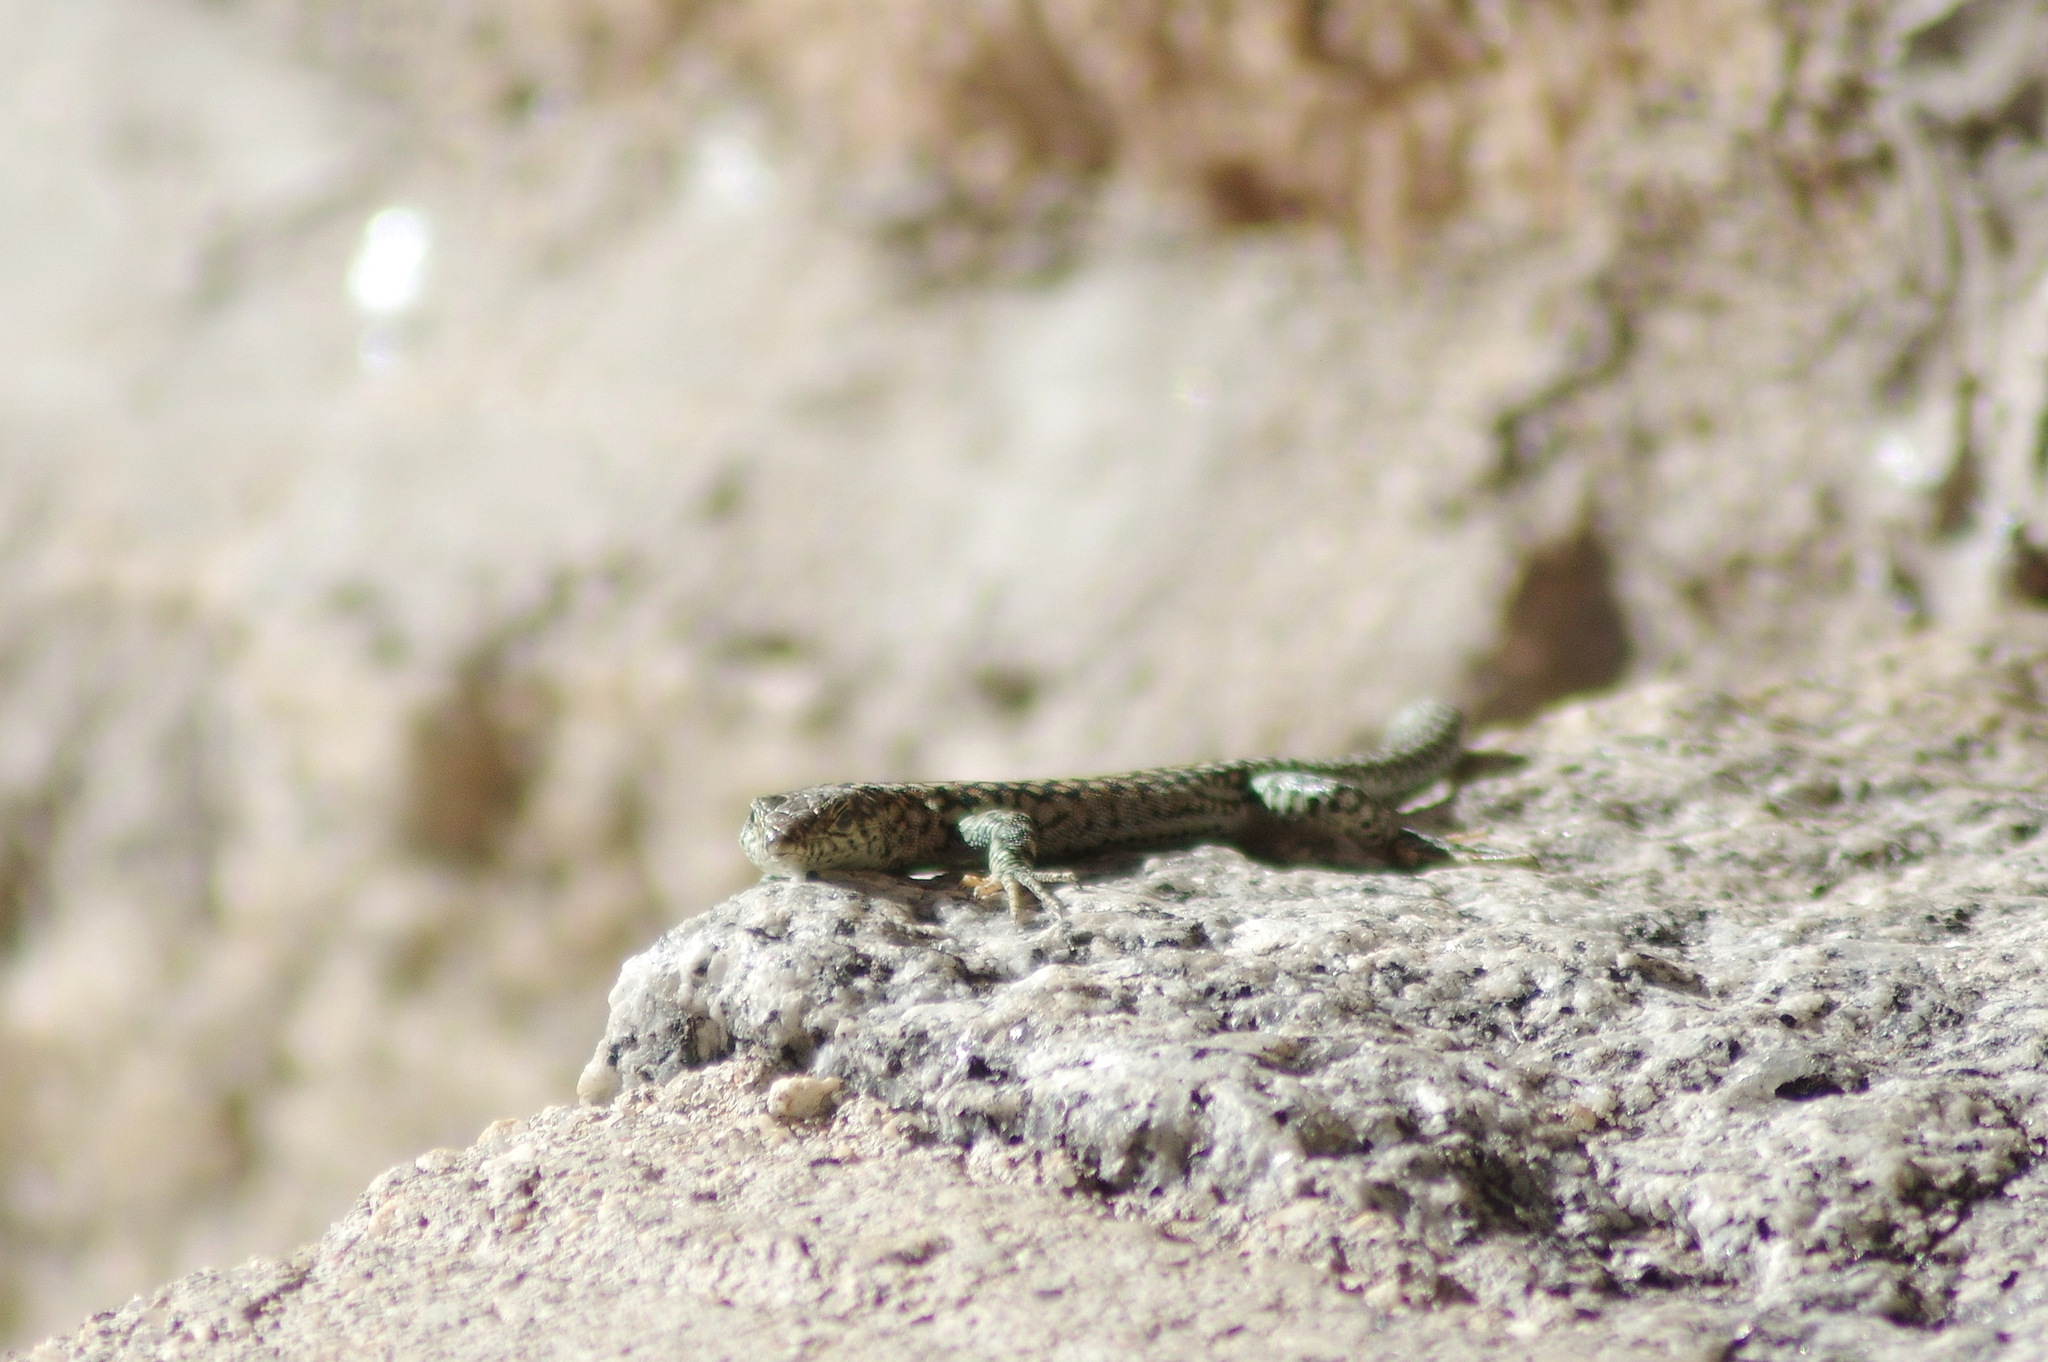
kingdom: Animalia
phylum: Chordata
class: Squamata
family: Lacertidae
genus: Podarcis
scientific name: Podarcis guadarramae
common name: Guadarrama wall lizard
